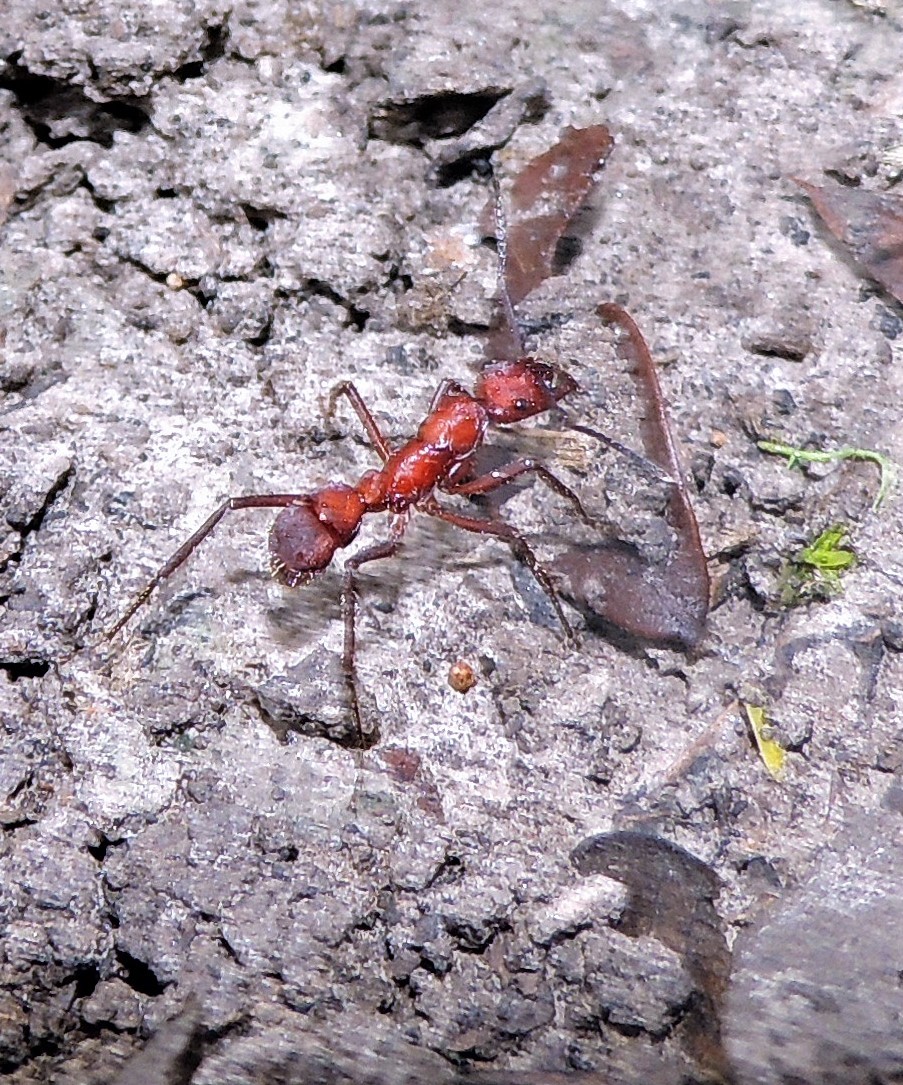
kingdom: Animalia
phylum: Arthropoda
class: Insecta
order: Hymenoptera
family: Formicidae
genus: Ectatomma
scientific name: Ectatomma opaciventre
